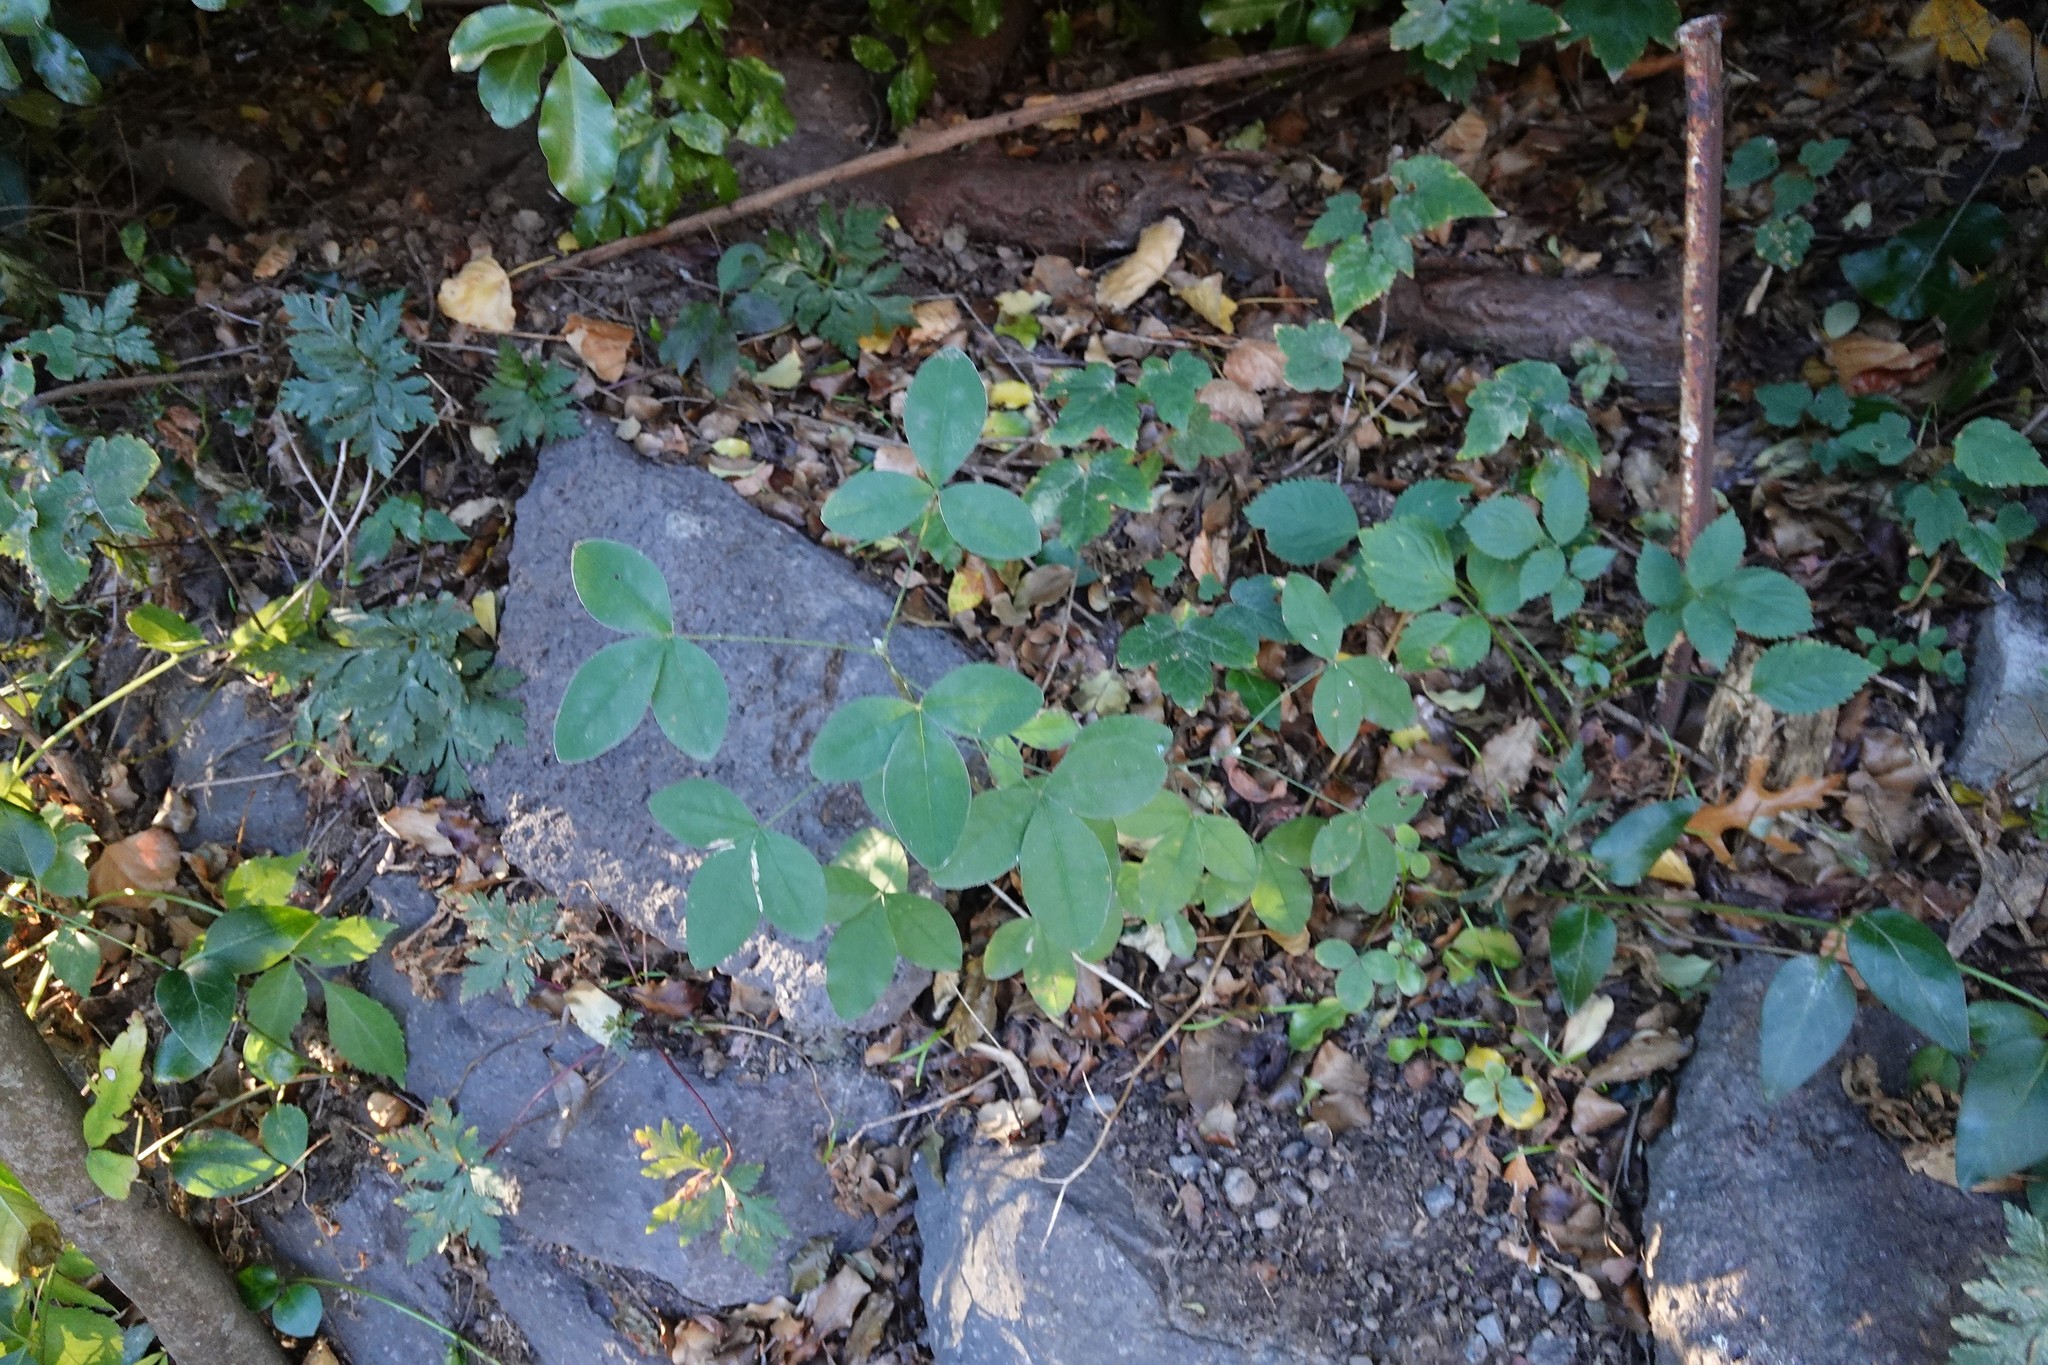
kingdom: Plantae
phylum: Tracheophyta
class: Magnoliopsida
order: Fabales
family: Fabaceae
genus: Laburnum
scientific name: Laburnum anagyroides
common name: Laburnum
